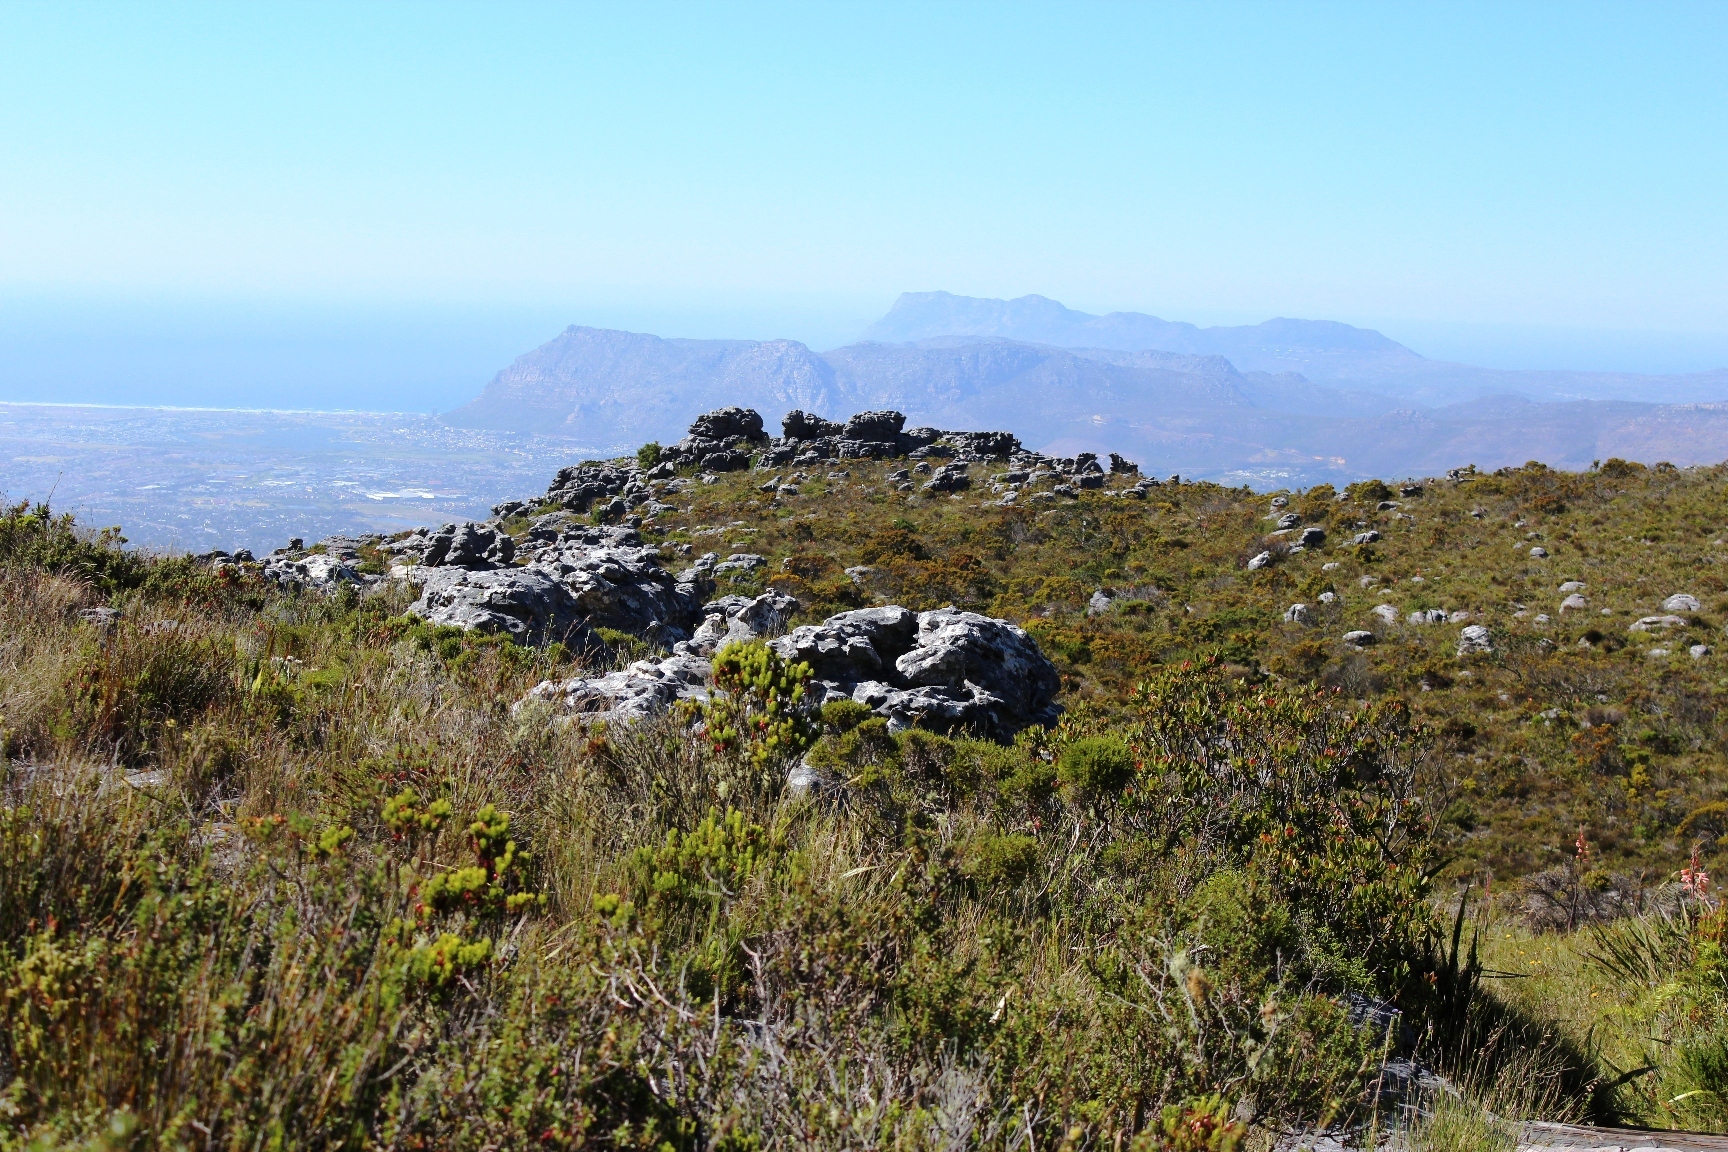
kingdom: Plantae
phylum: Tracheophyta
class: Magnoliopsida
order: Ericales
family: Ericaceae
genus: Erica
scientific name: Erica plukenetii
